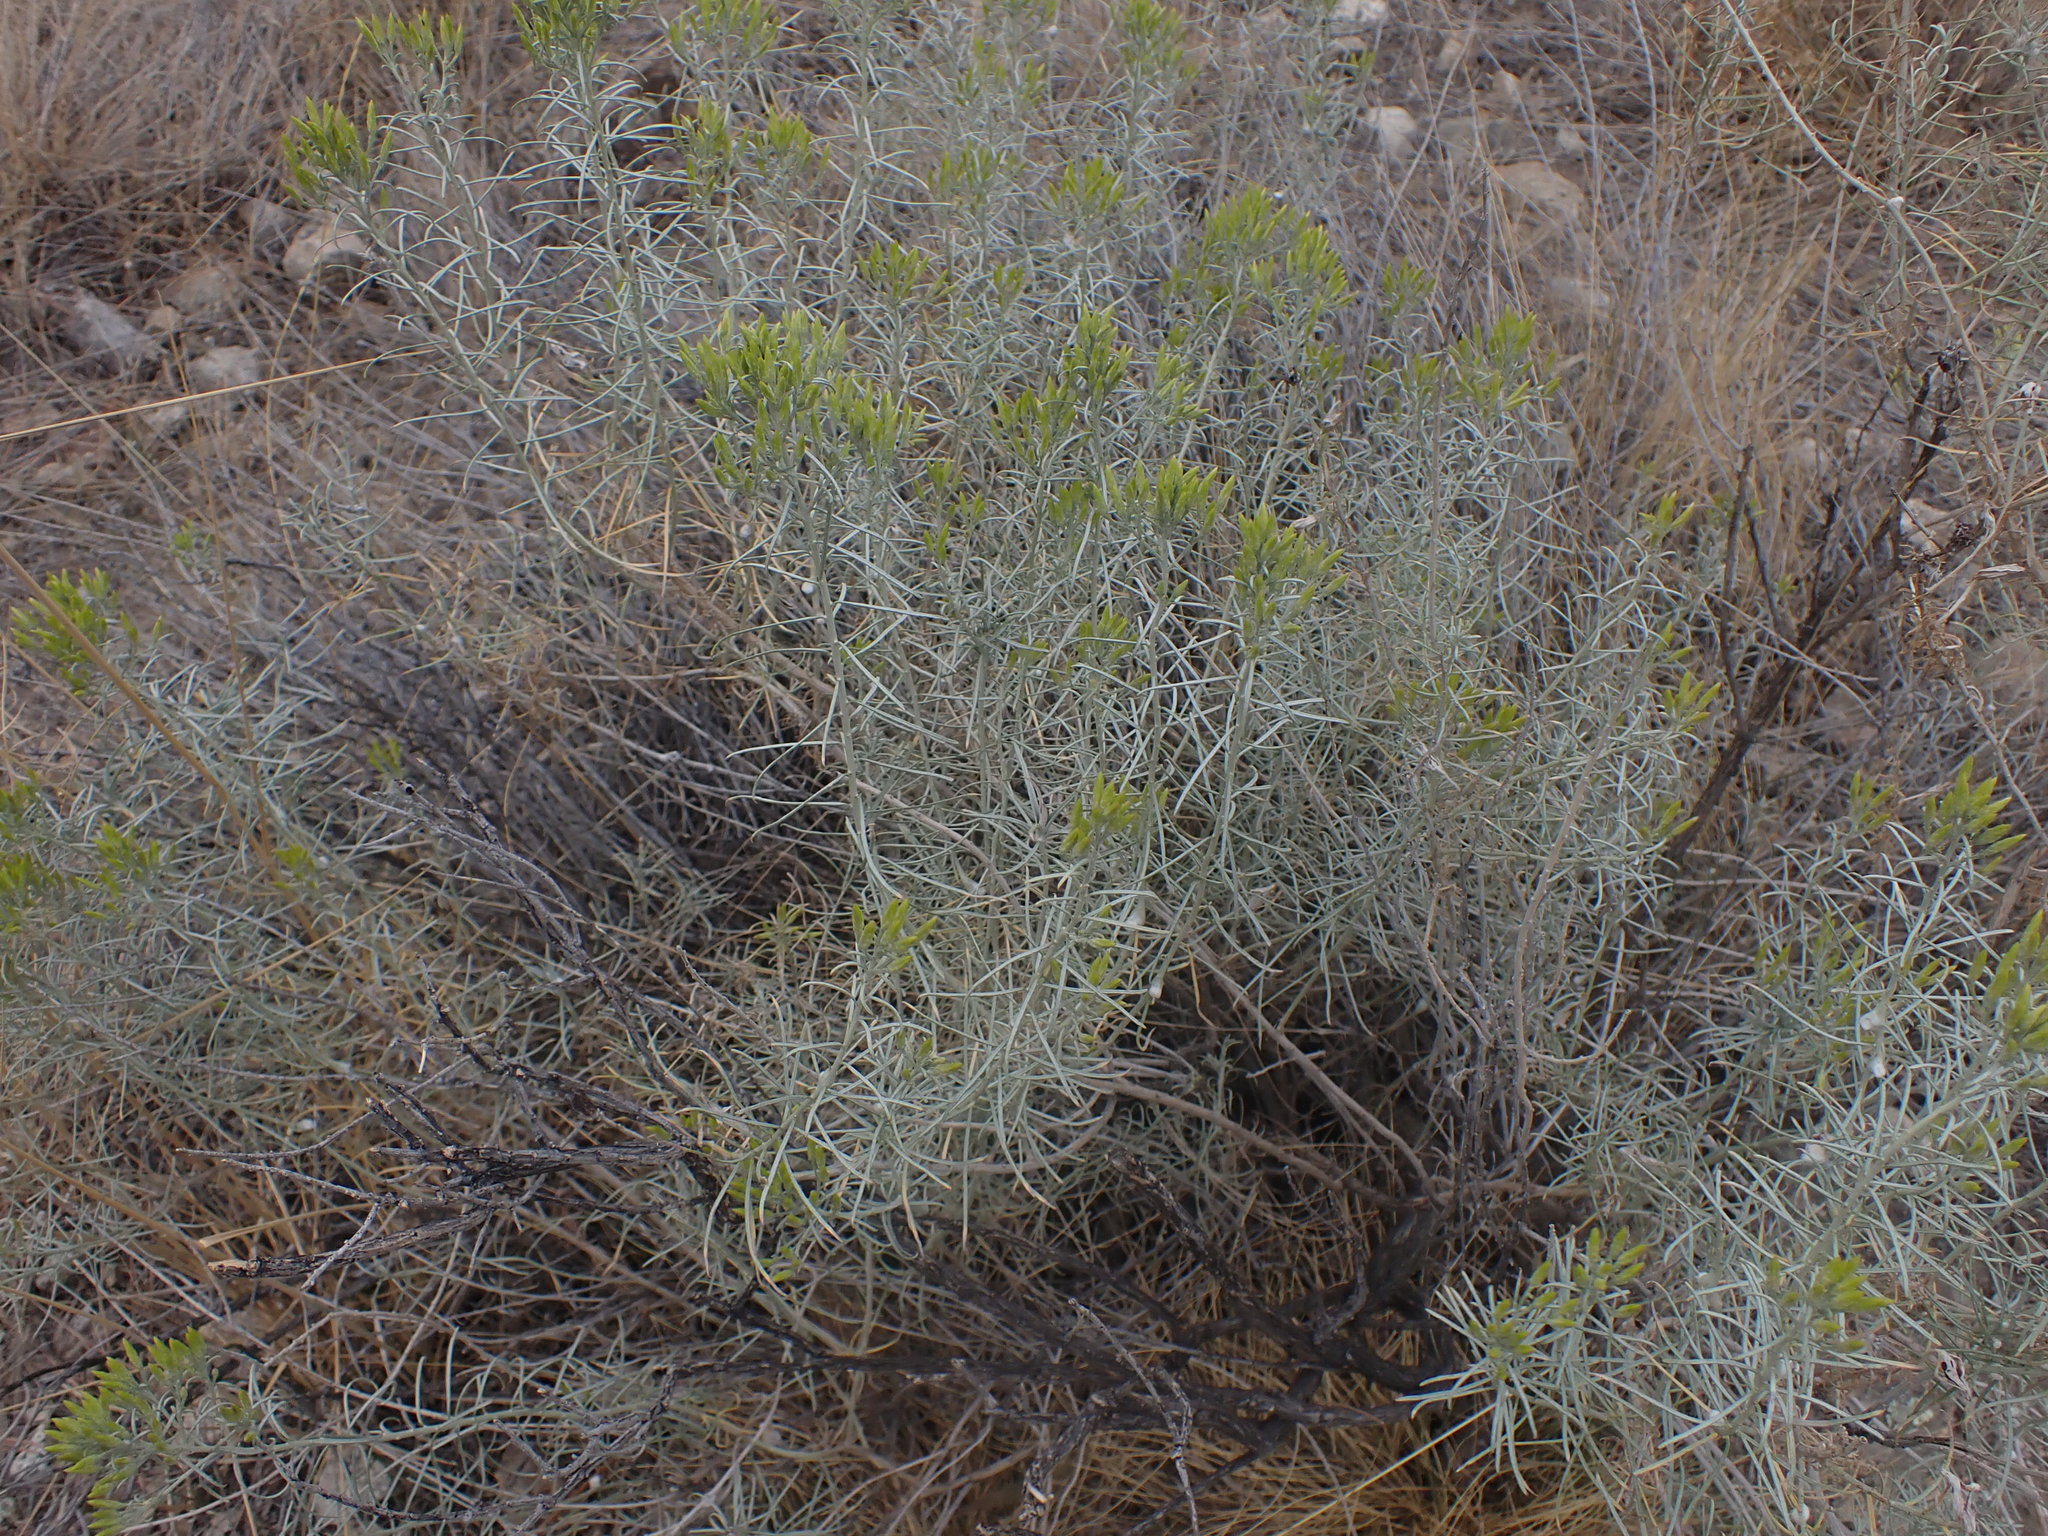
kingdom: Plantae
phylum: Tracheophyta
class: Magnoliopsida
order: Asterales
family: Asteraceae
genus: Ericameria
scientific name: Ericameria nauseosa
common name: Rubber rabbitbrush
